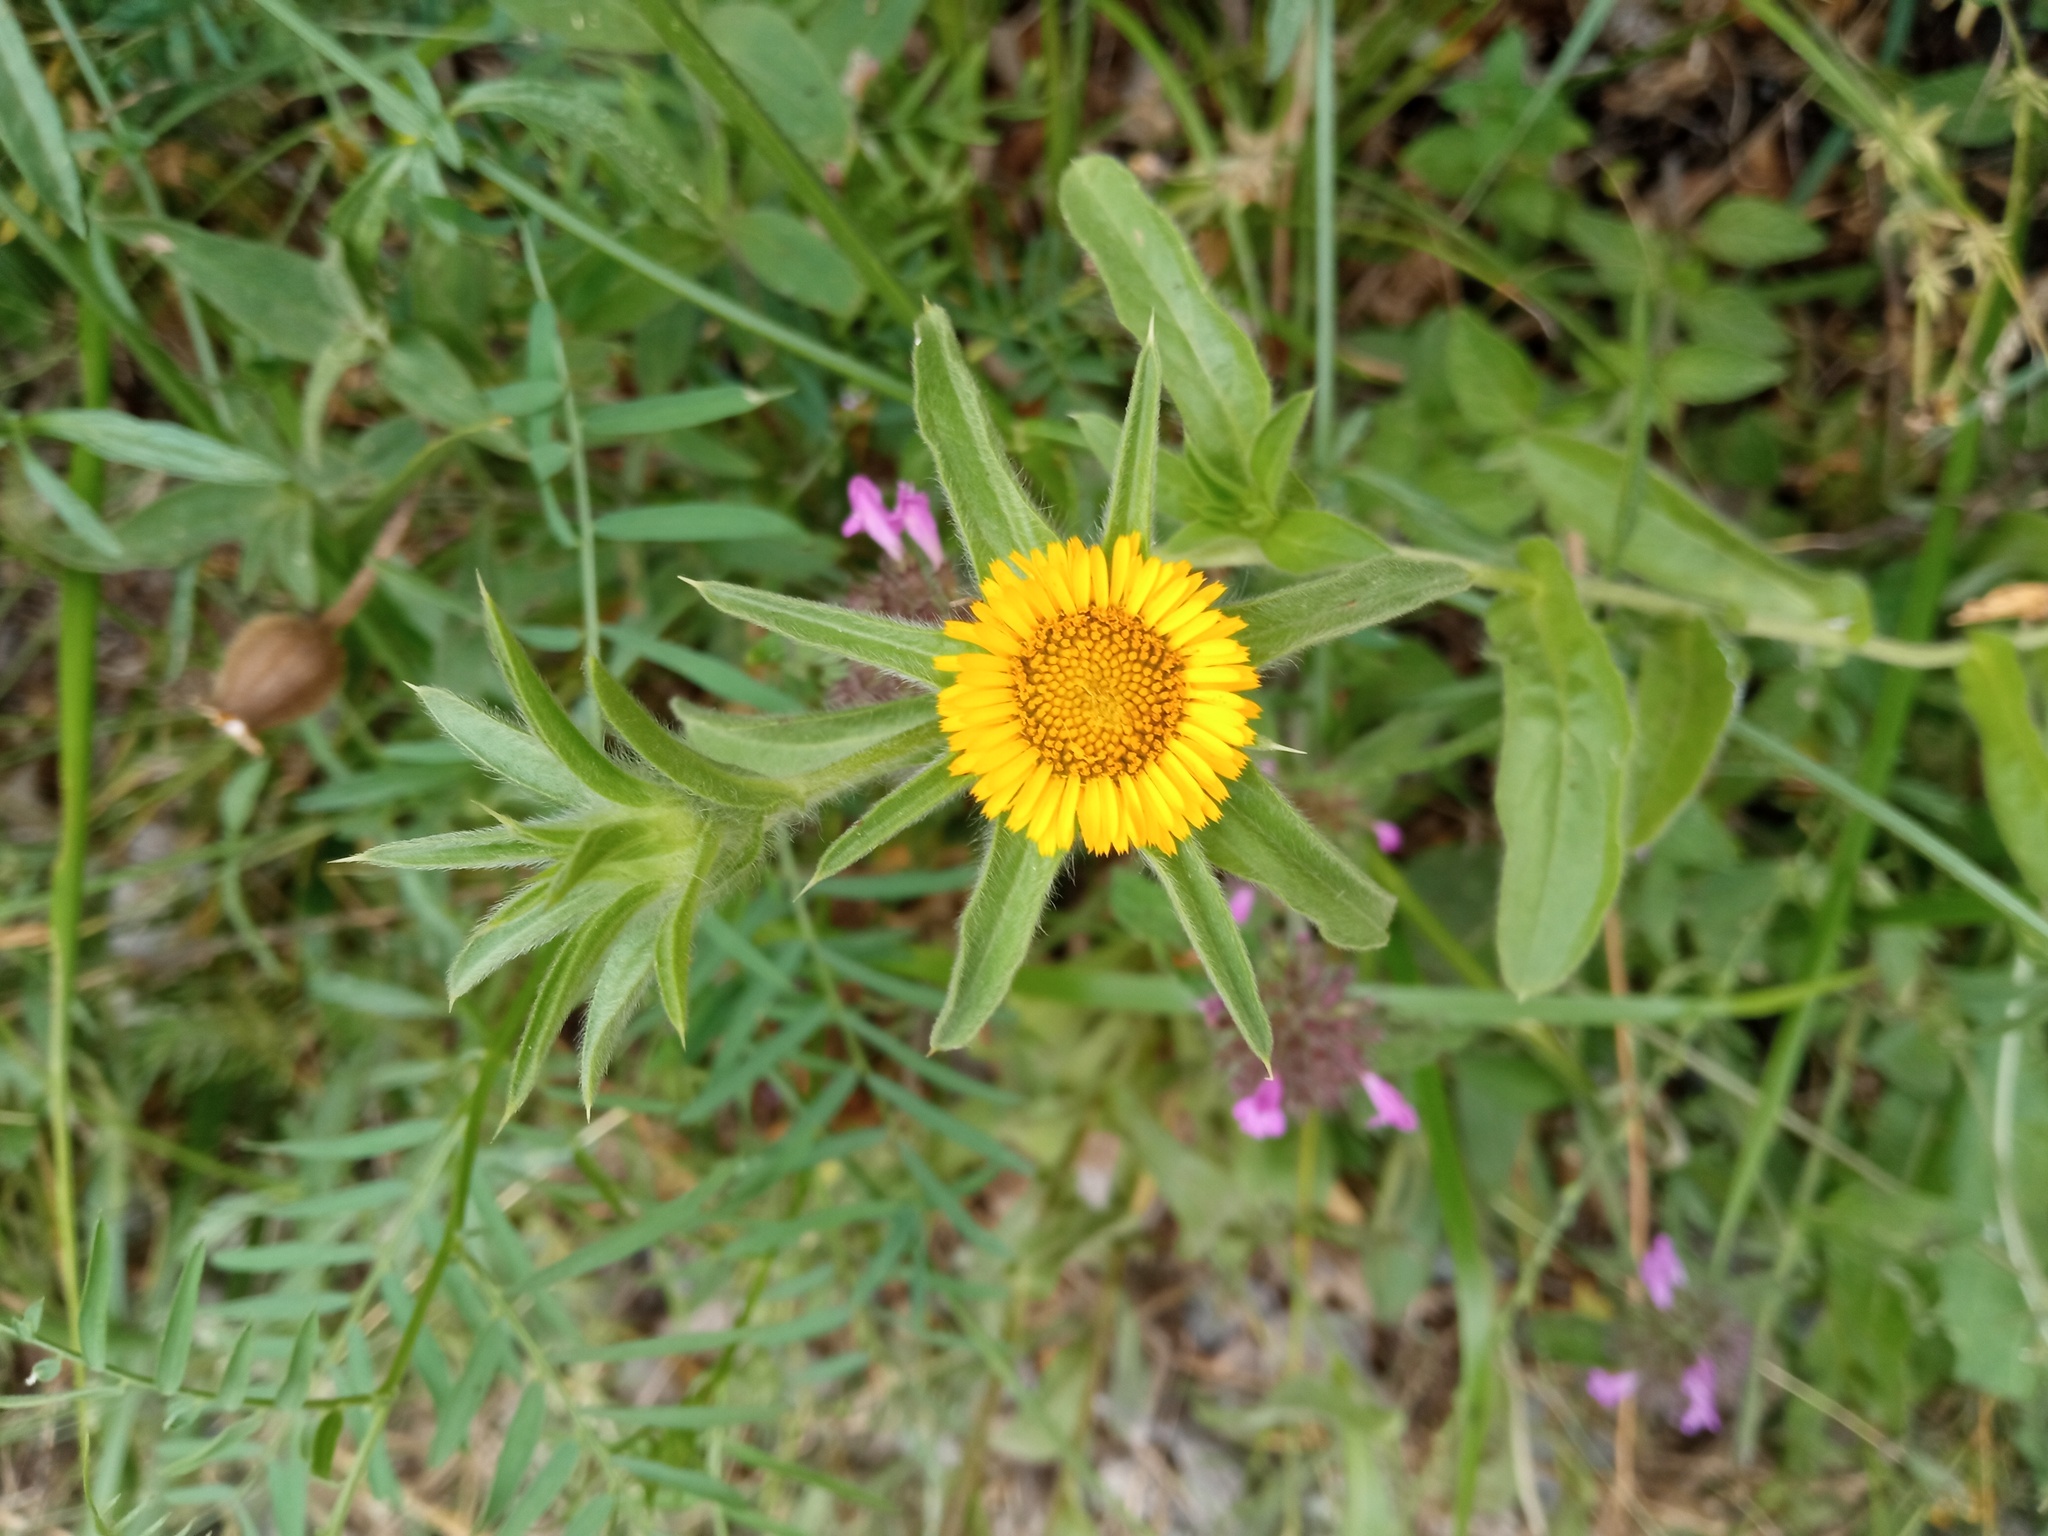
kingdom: Plantae
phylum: Tracheophyta
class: Magnoliopsida
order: Asterales
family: Asteraceae
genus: Pallenis
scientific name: Pallenis spinosa
